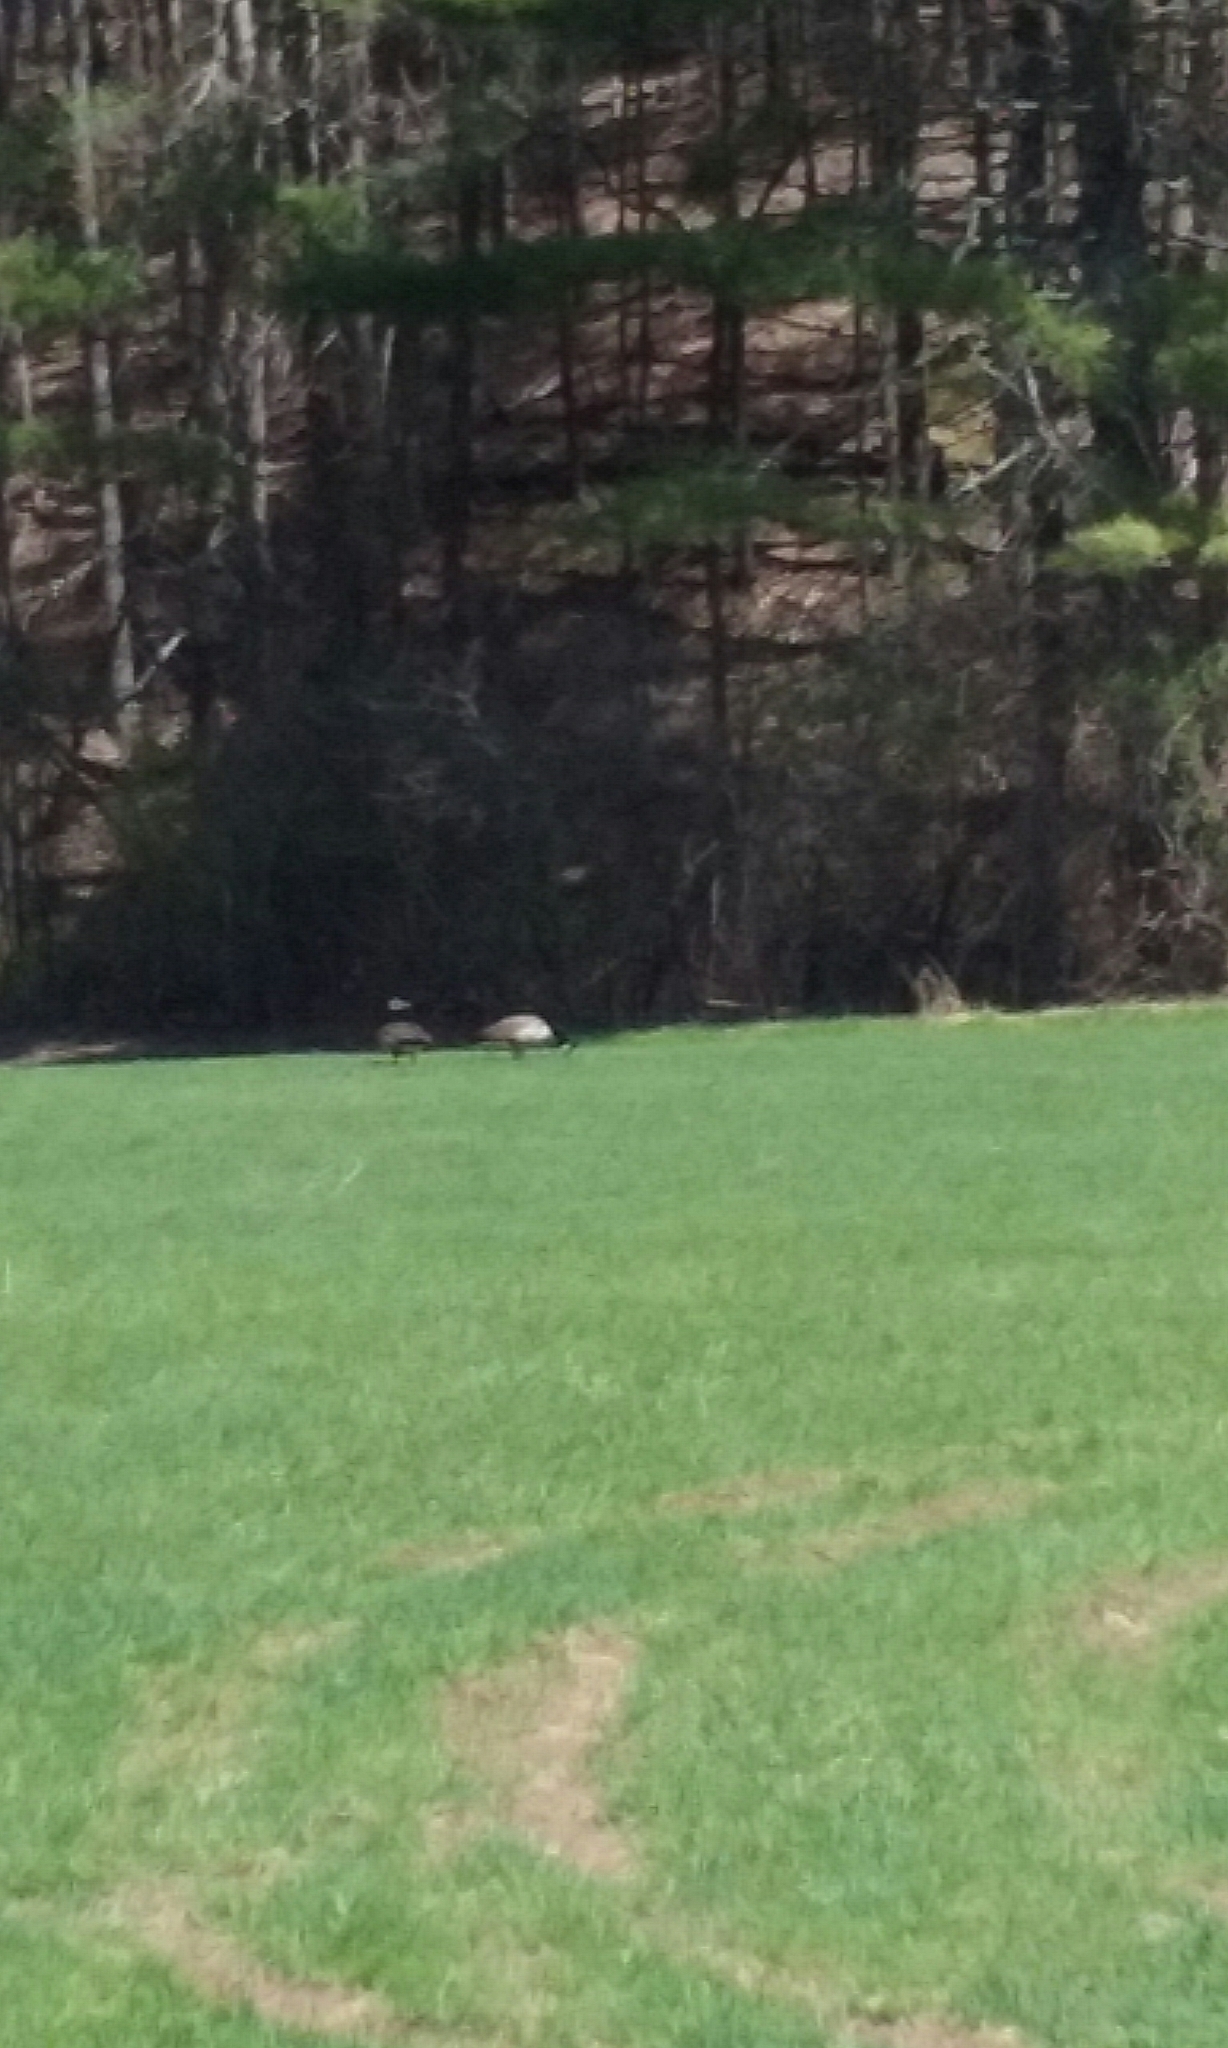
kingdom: Animalia
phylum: Chordata
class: Aves
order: Anseriformes
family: Anatidae
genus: Branta
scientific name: Branta canadensis
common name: Canada goose
